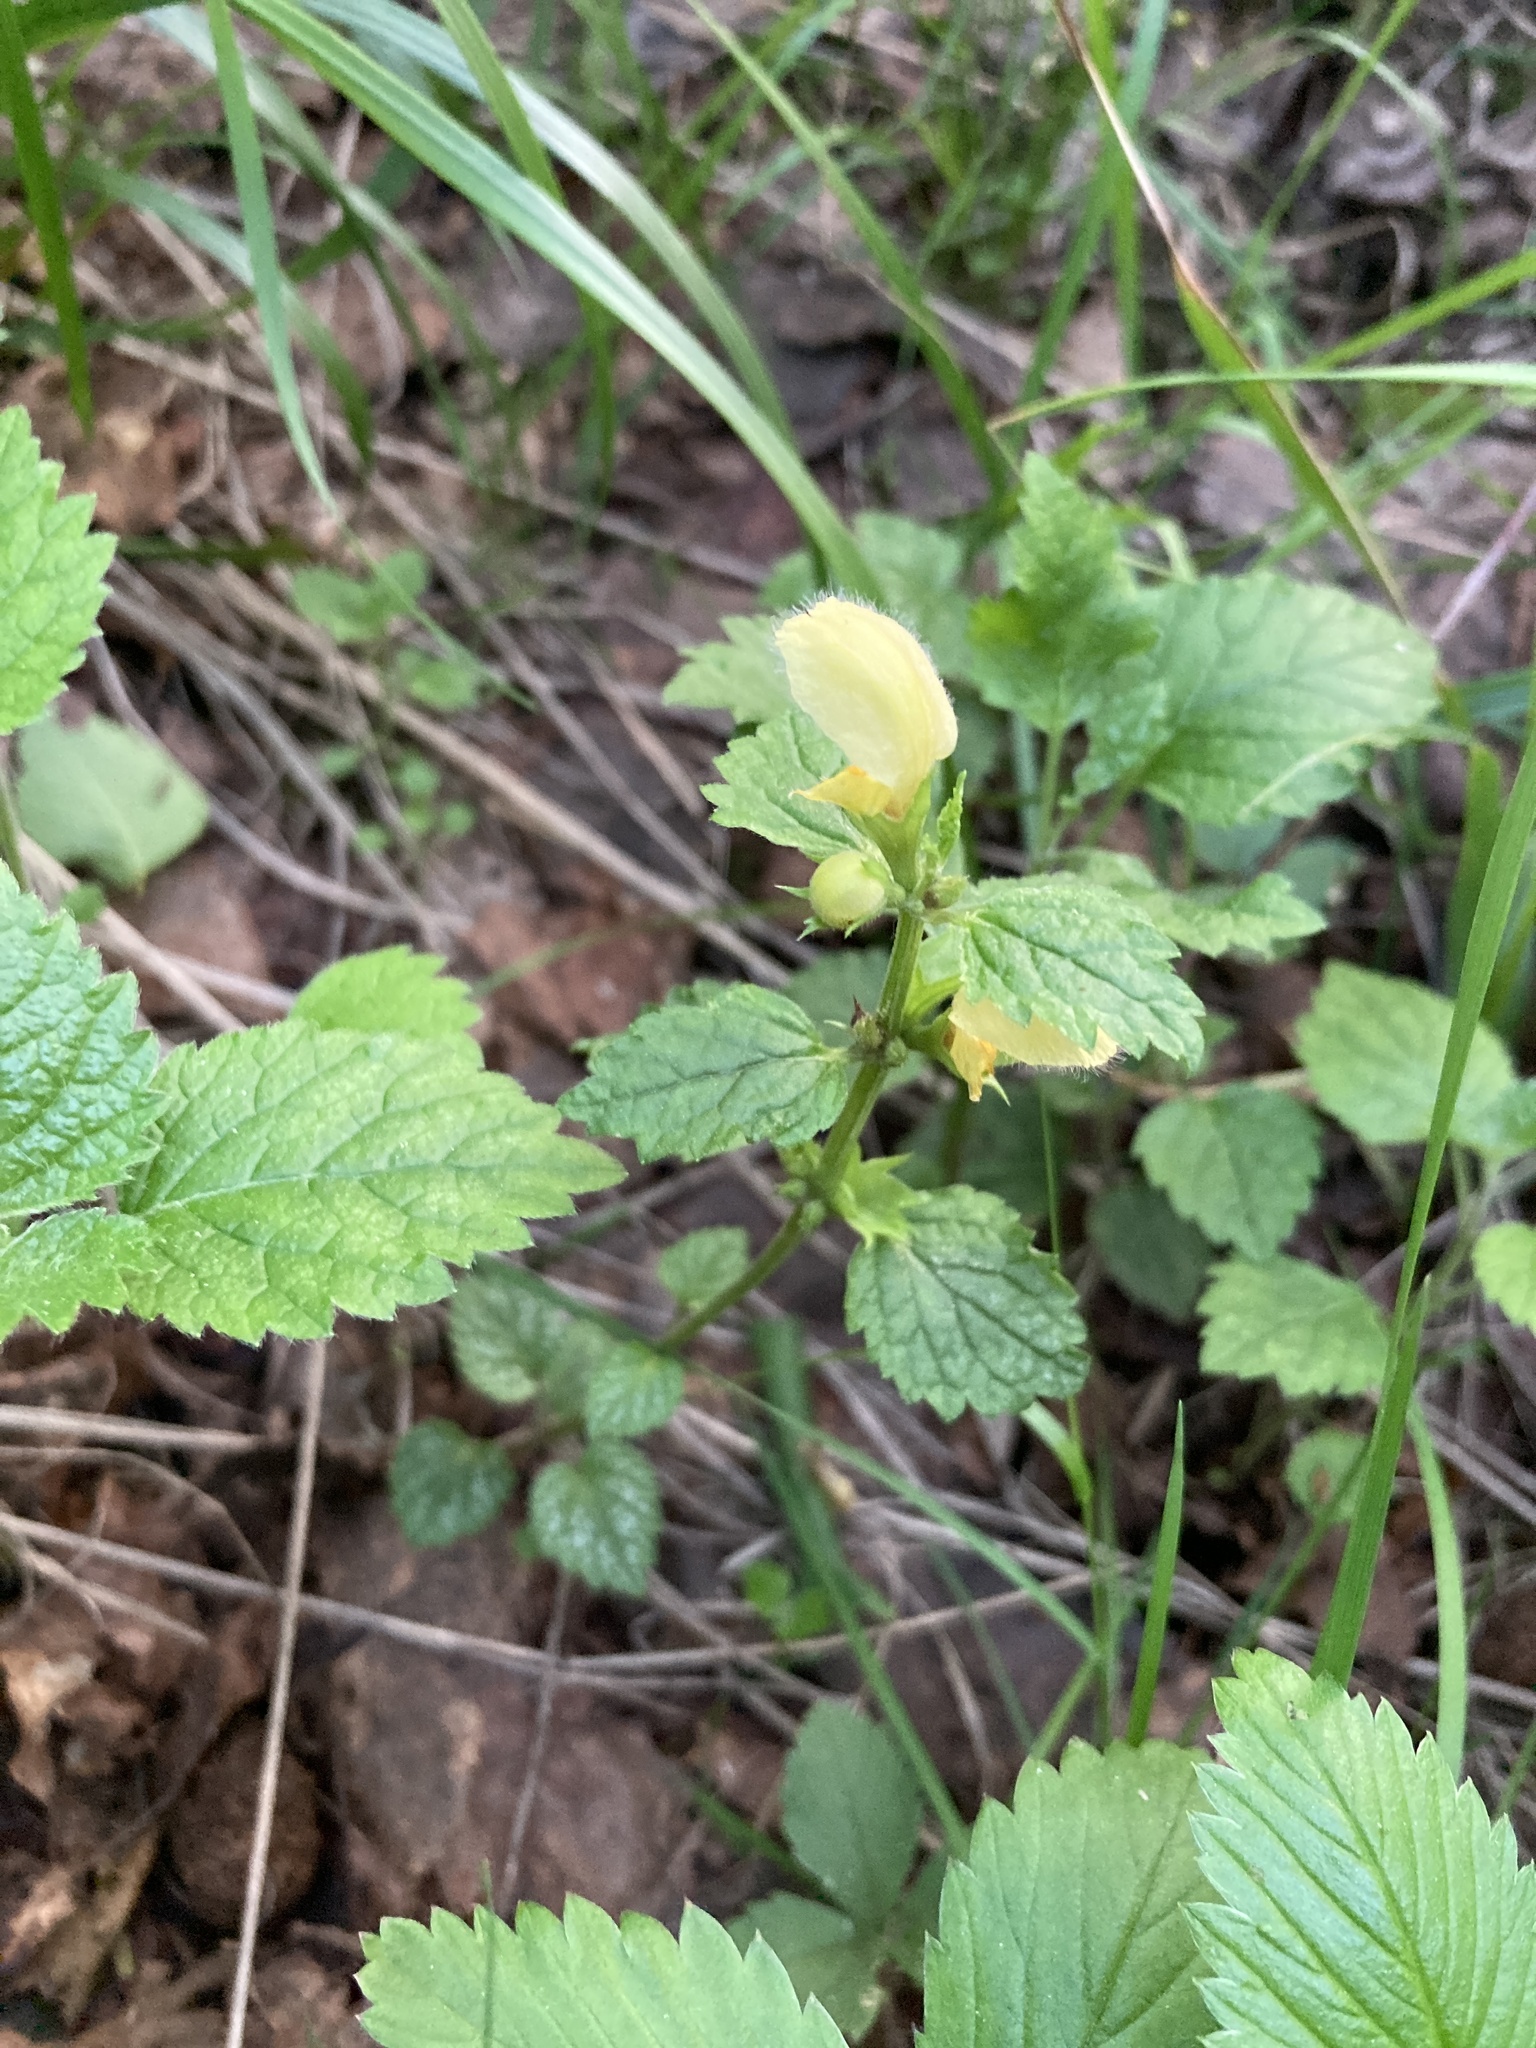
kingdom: Plantae
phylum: Tracheophyta
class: Magnoliopsida
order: Lamiales
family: Lamiaceae
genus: Lamium
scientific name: Lamium galeobdolon
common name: Yellow archangel
